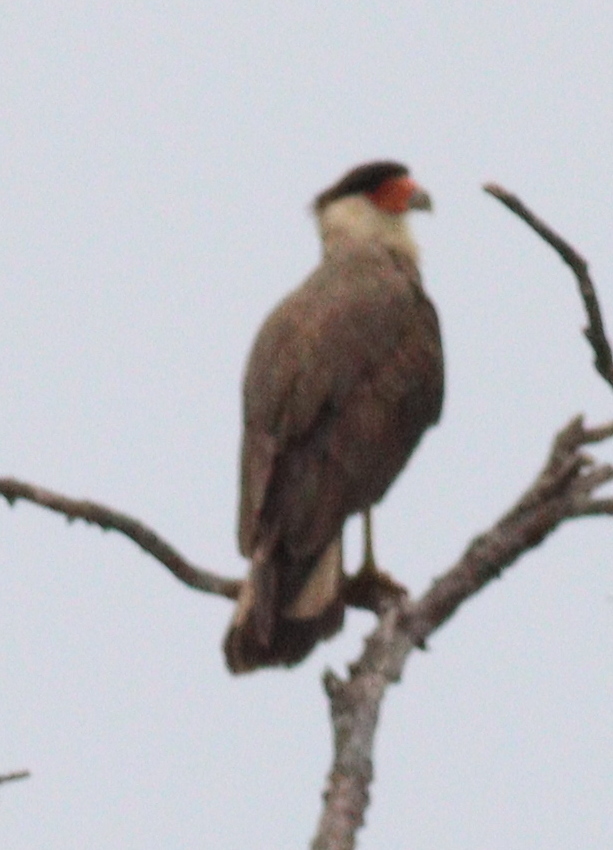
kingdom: Animalia
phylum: Chordata
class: Aves
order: Falconiformes
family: Falconidae
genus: Caracara
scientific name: Caracara plancus
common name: Southern caracara
